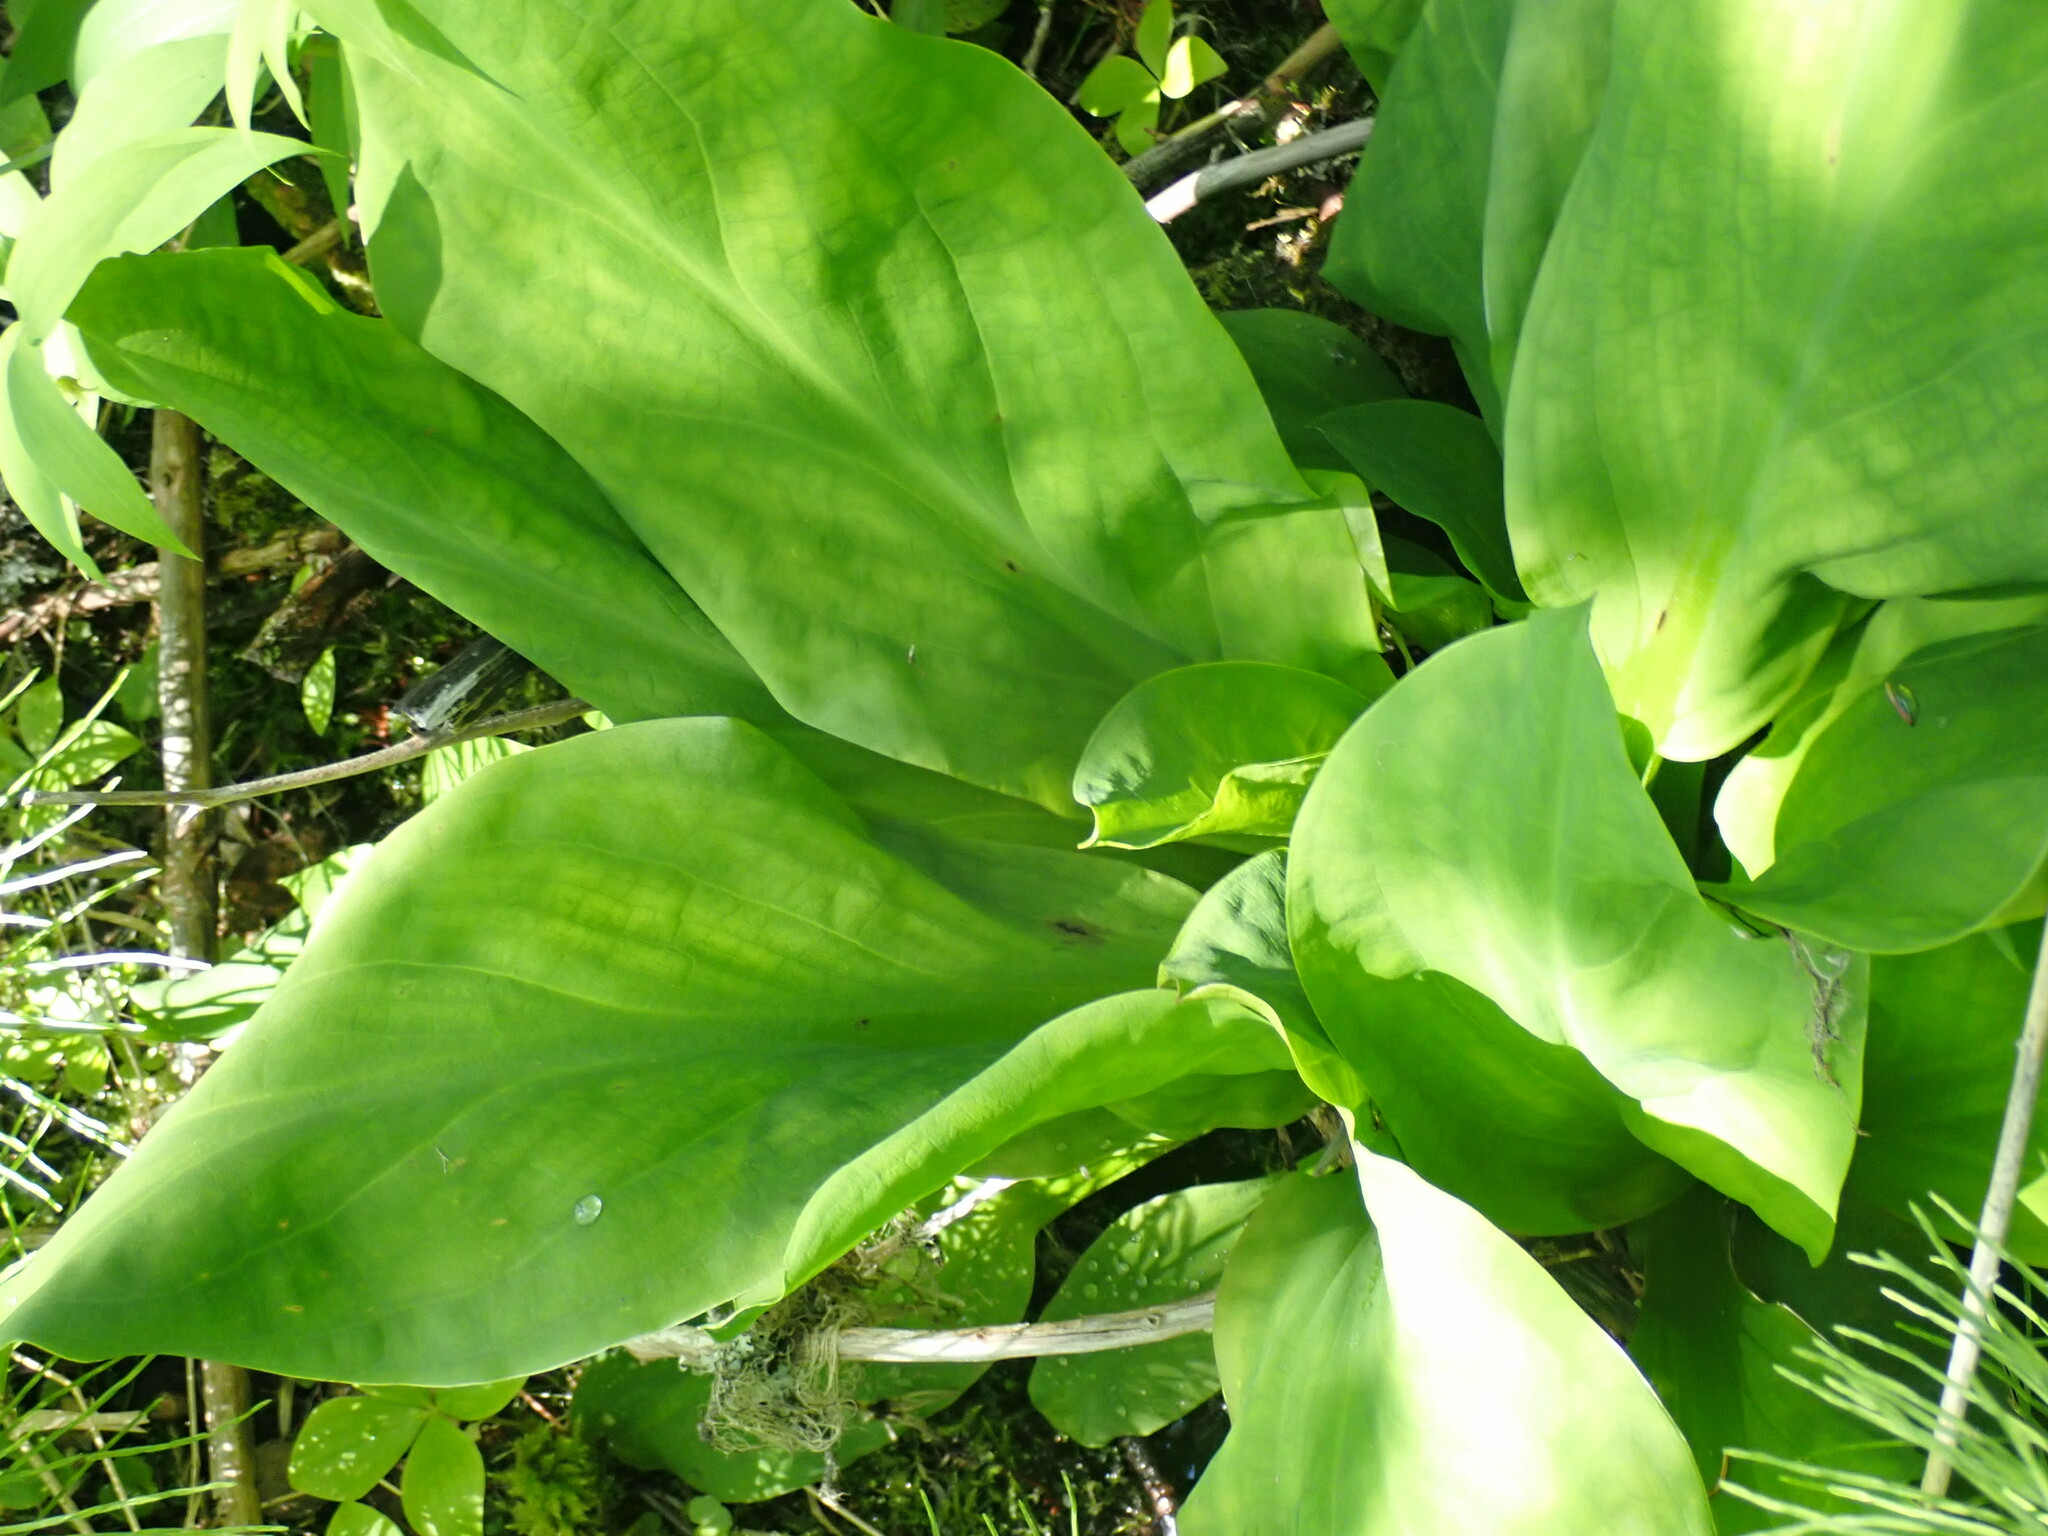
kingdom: Plantae
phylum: Tracheophyta
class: Liliopsida
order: Alismatales
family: Araceae
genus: Lysichiton
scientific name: Lysichiton americanus
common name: American skunk cabbage
